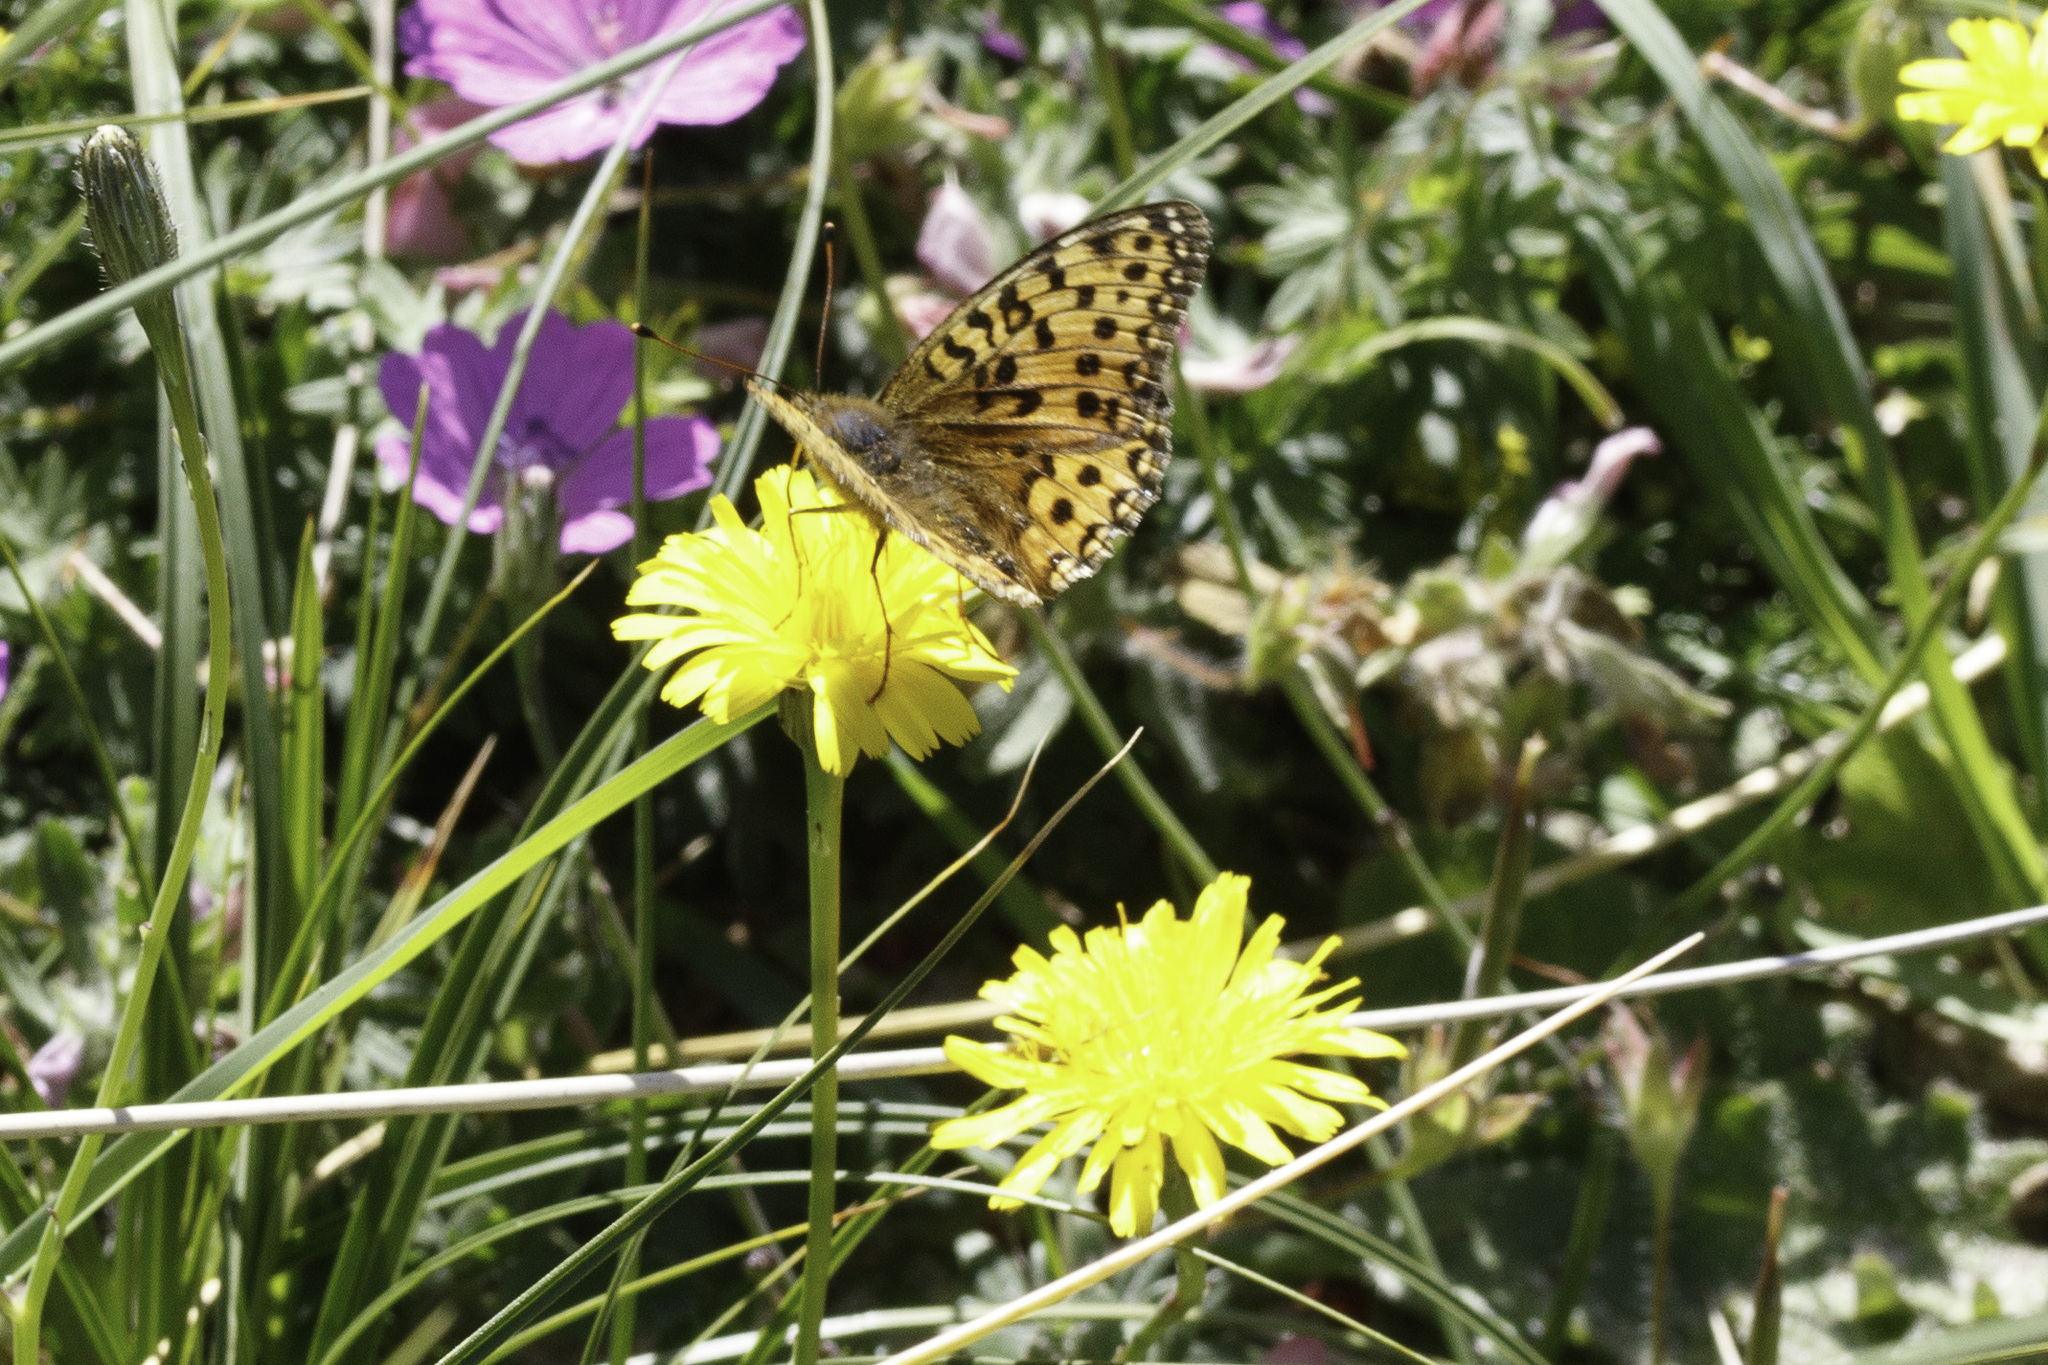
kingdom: Animalia
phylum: Arthropoda
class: Insecta
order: Lepidoptera
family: Nymphalidae
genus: Speyeria
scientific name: Speyeria aglaja
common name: Dark green fritillary
